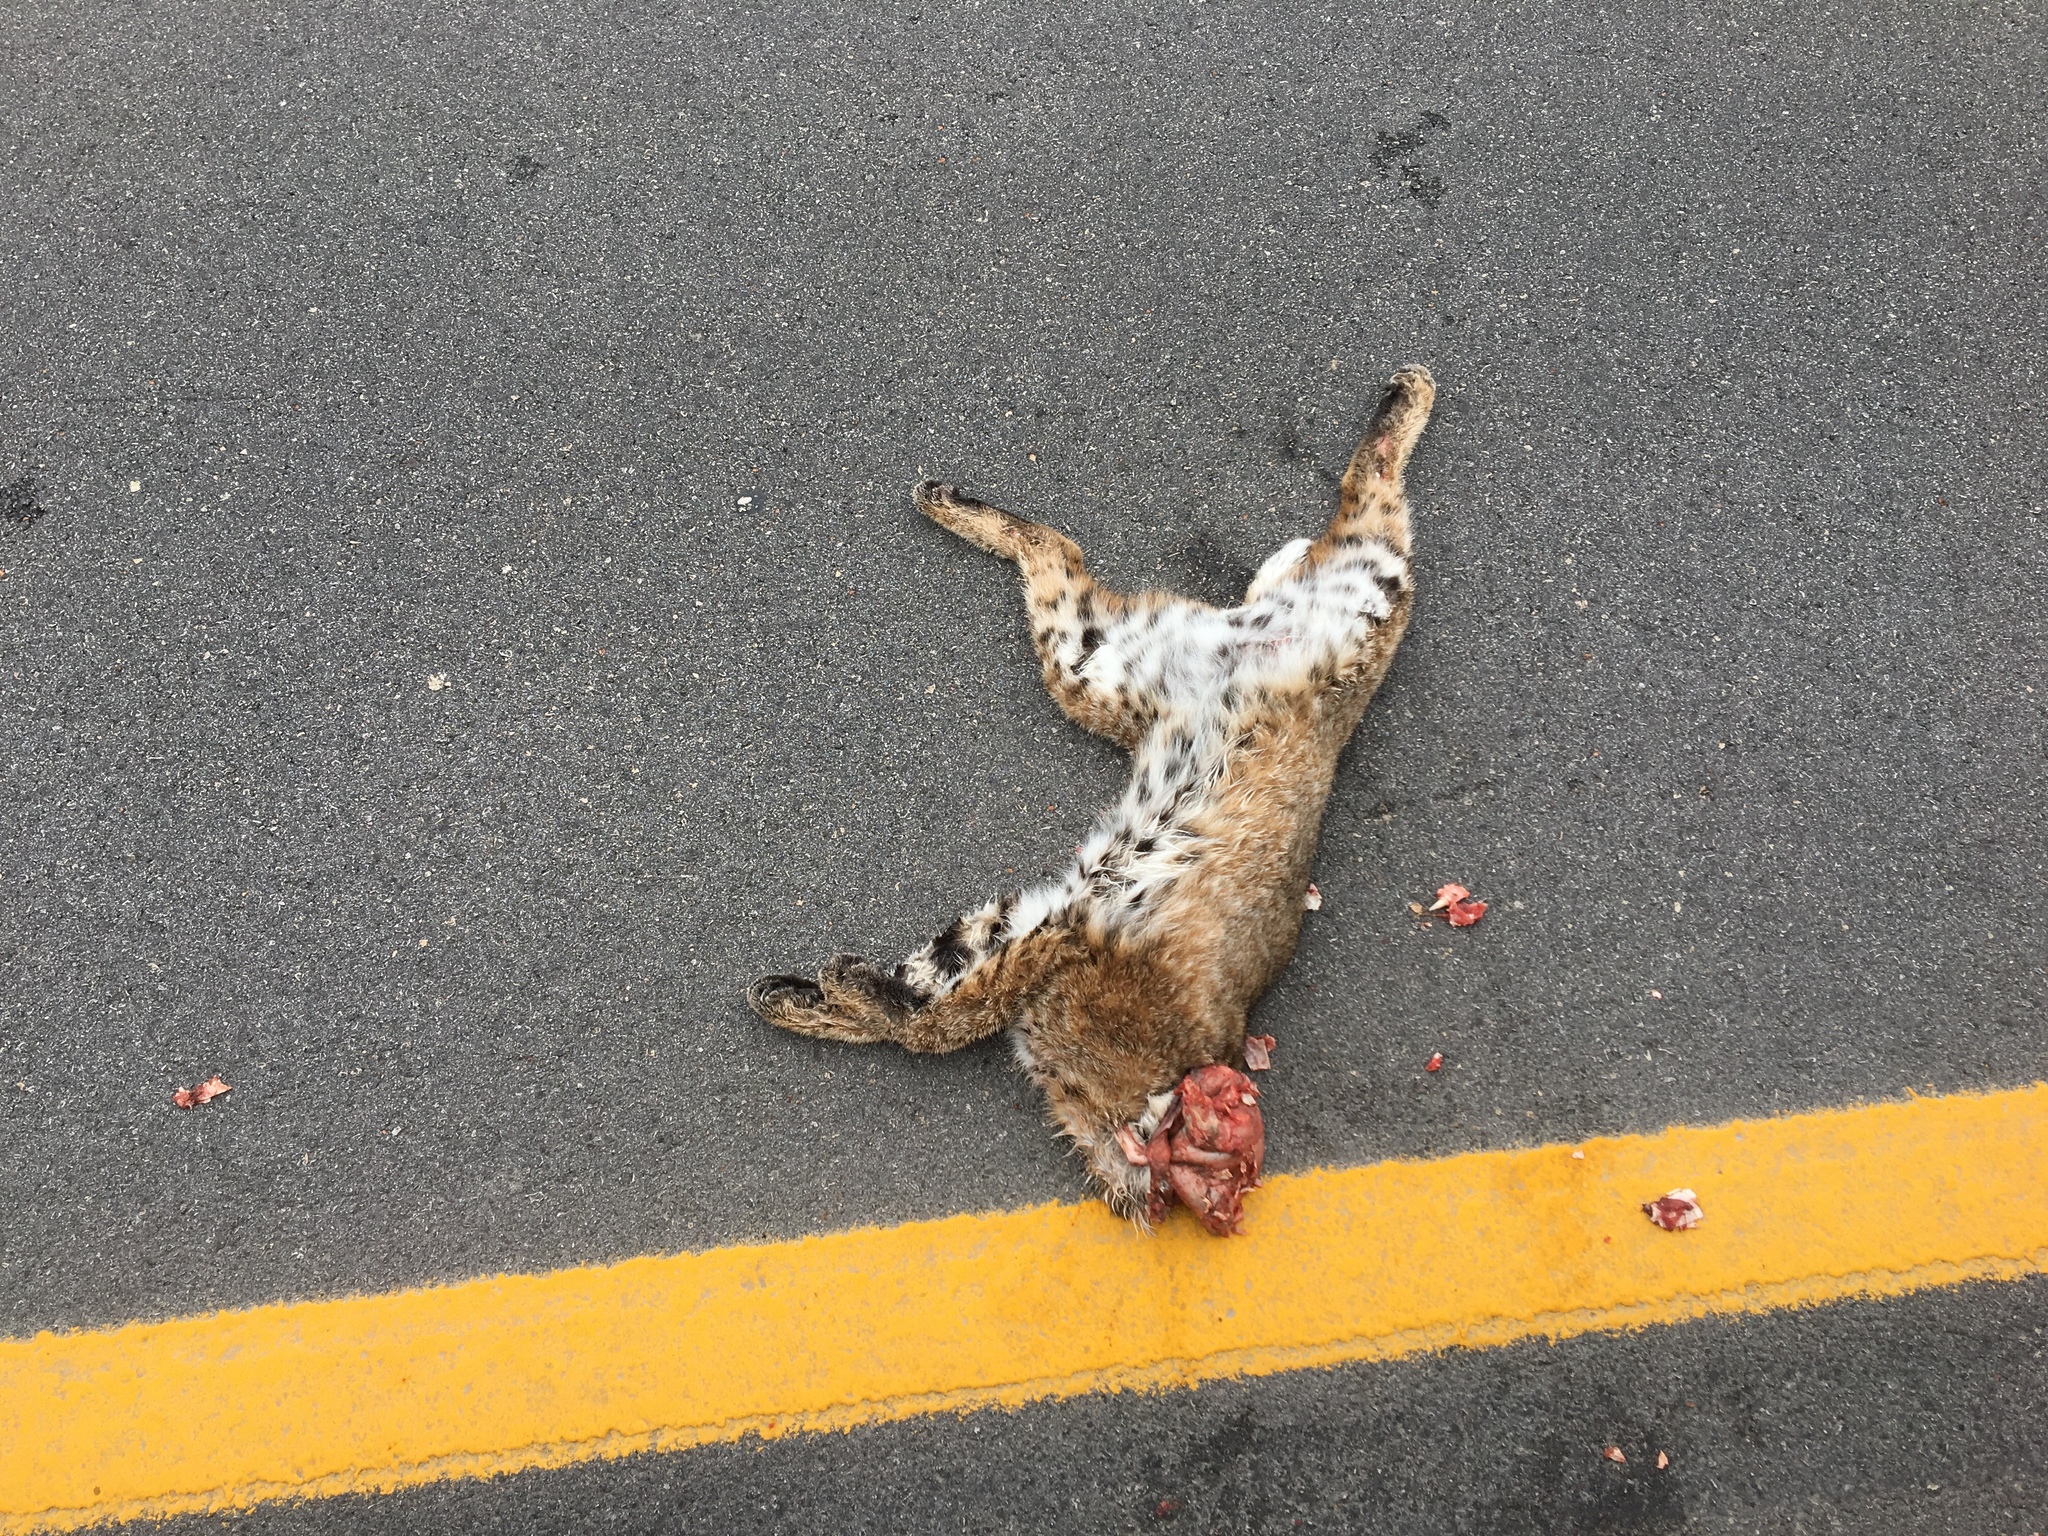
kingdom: Animalia
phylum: Chordata
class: Mammalia
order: Carnivora
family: Felidae
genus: Lynx
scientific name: Lynx rufus
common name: Bobcat
